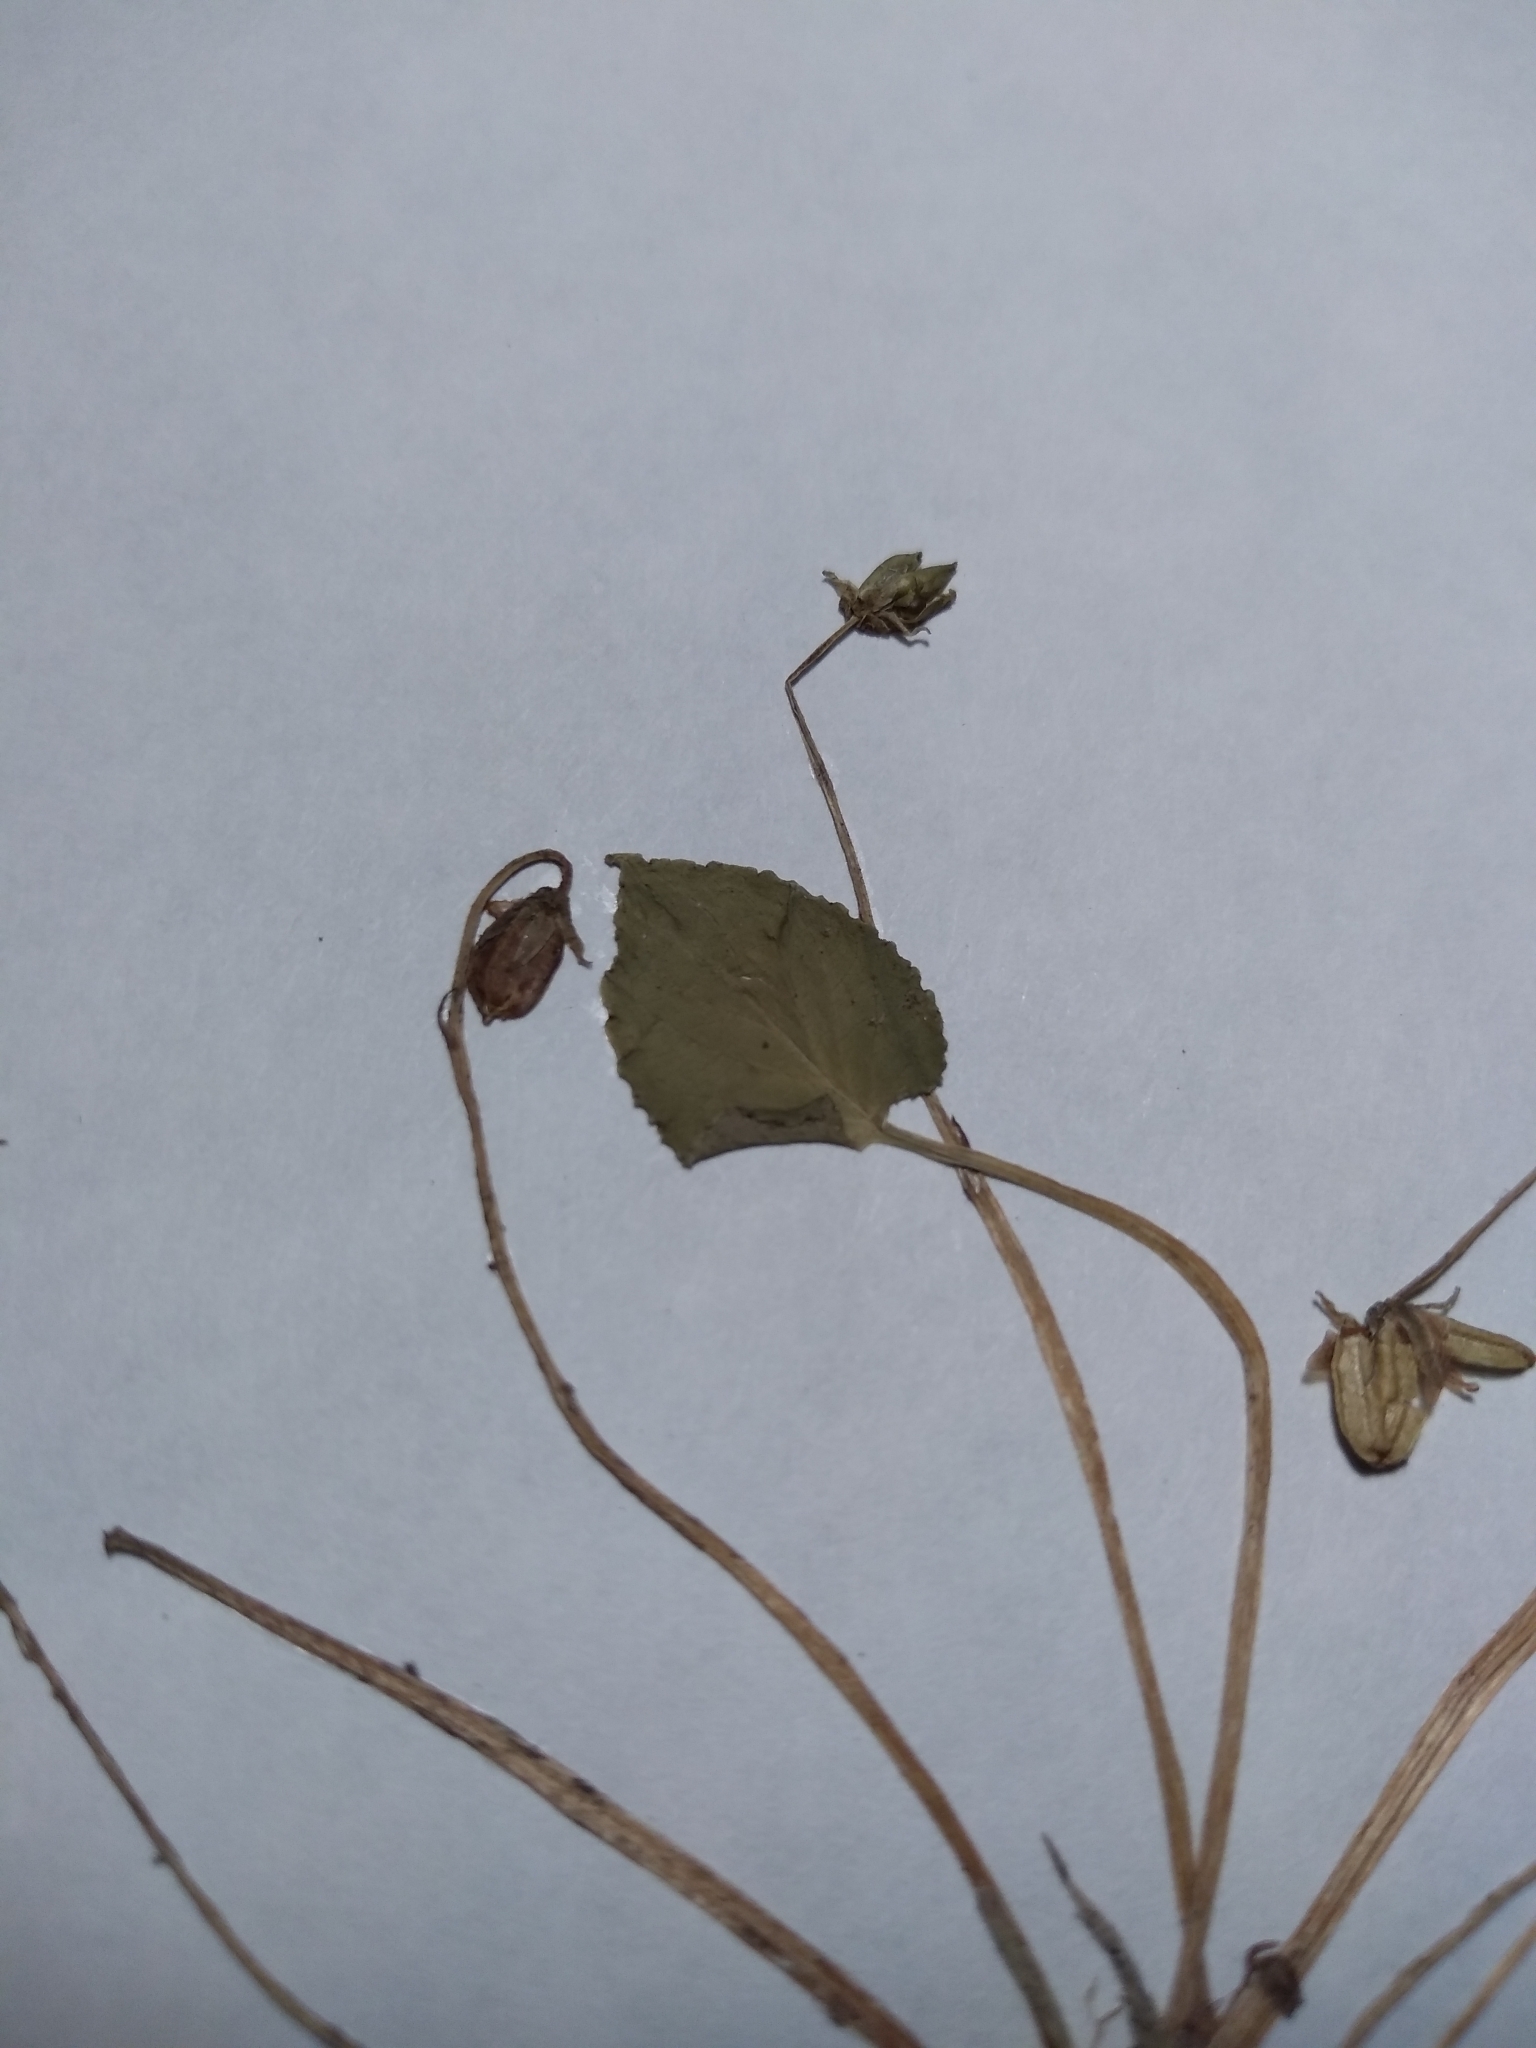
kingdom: Plantae
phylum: Tracheophyta
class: Magnoliopsida
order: Malpighiales
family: Violaceae
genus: Viola
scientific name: Viola minuscula
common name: Northern white violet
